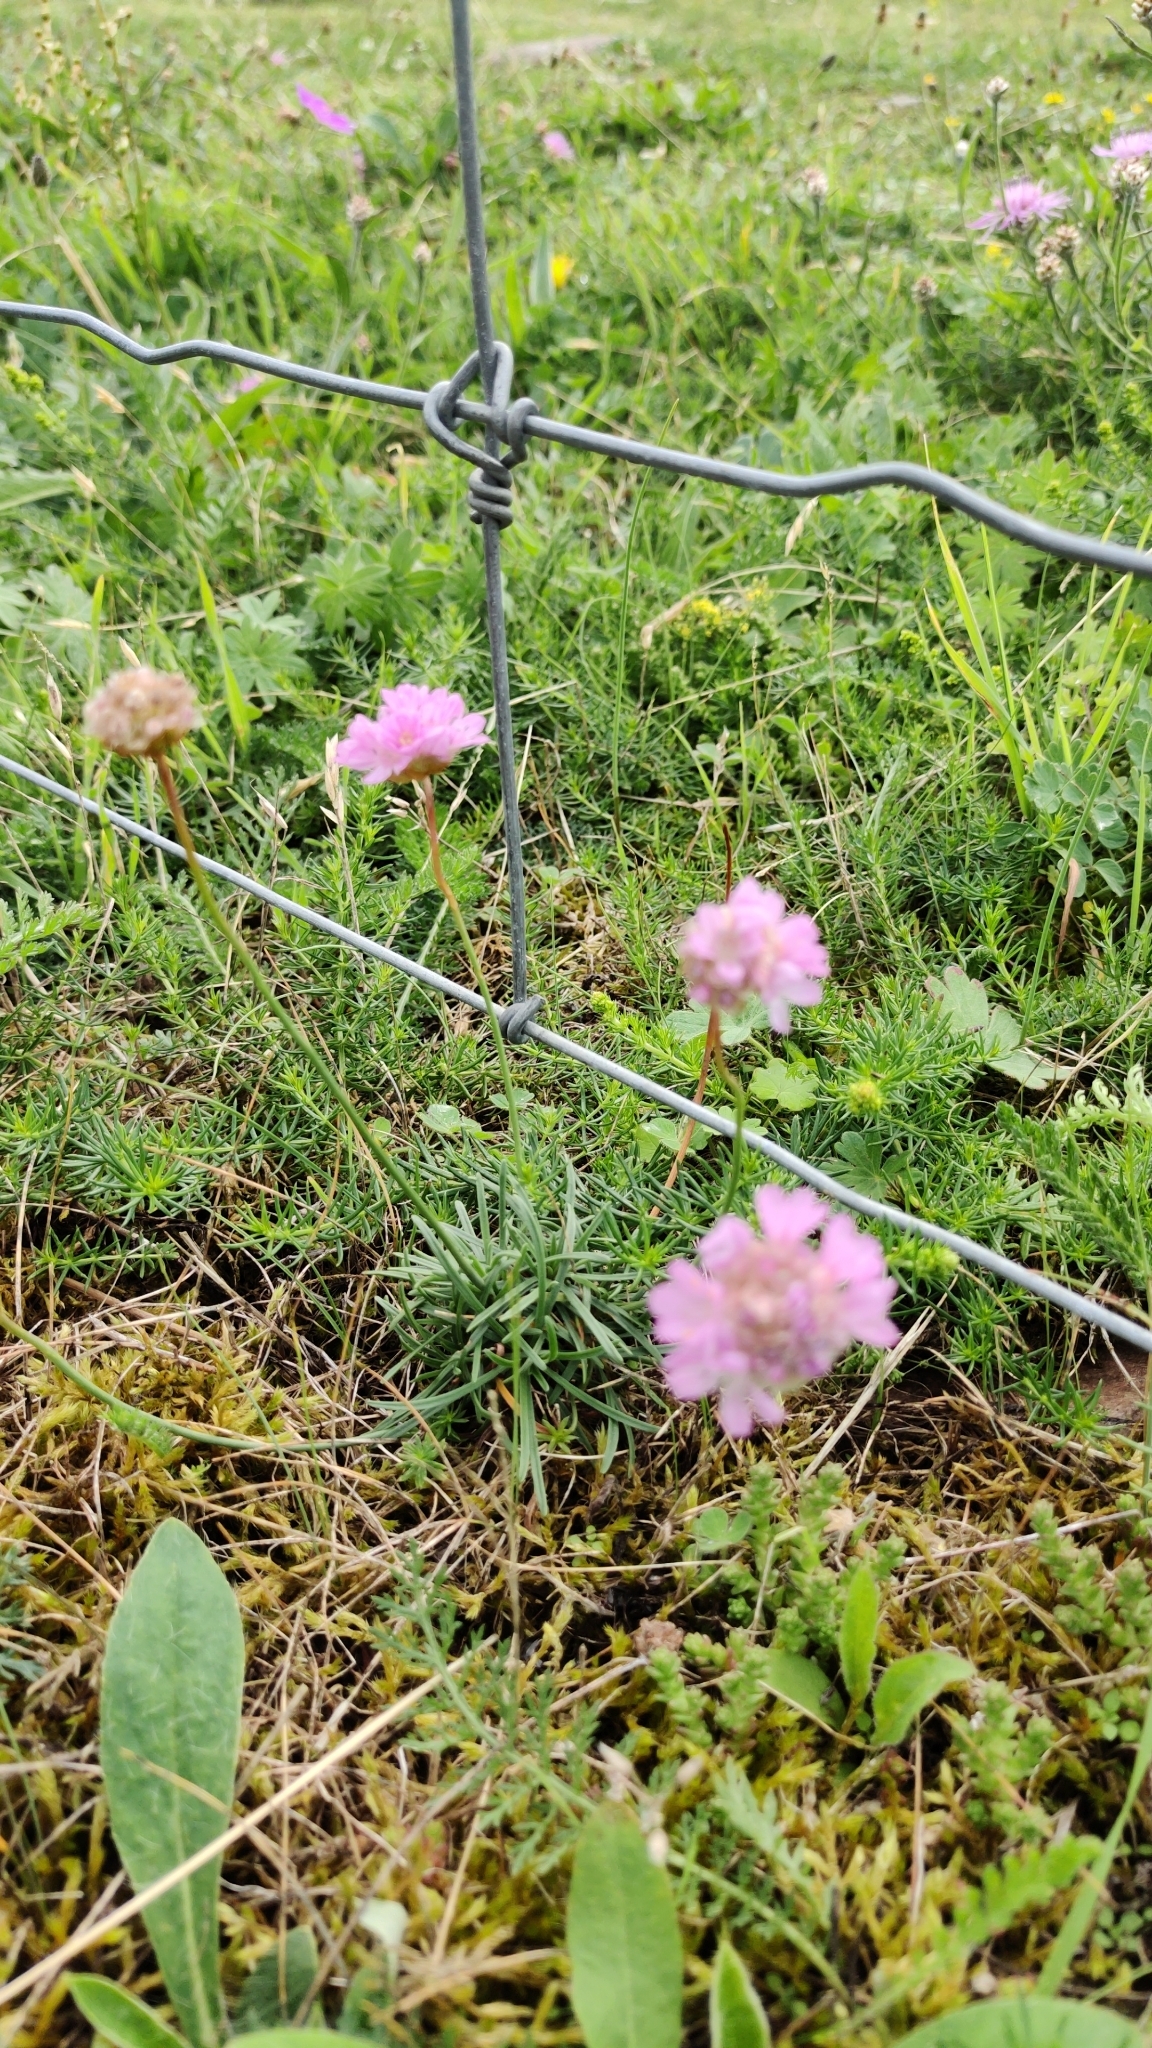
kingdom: Plantae
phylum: Tracheophyta
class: Magnoliopsida
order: Caryophyllales
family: Plumbaginaceae
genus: Armeria
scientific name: Armeria maritima
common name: Thrift
